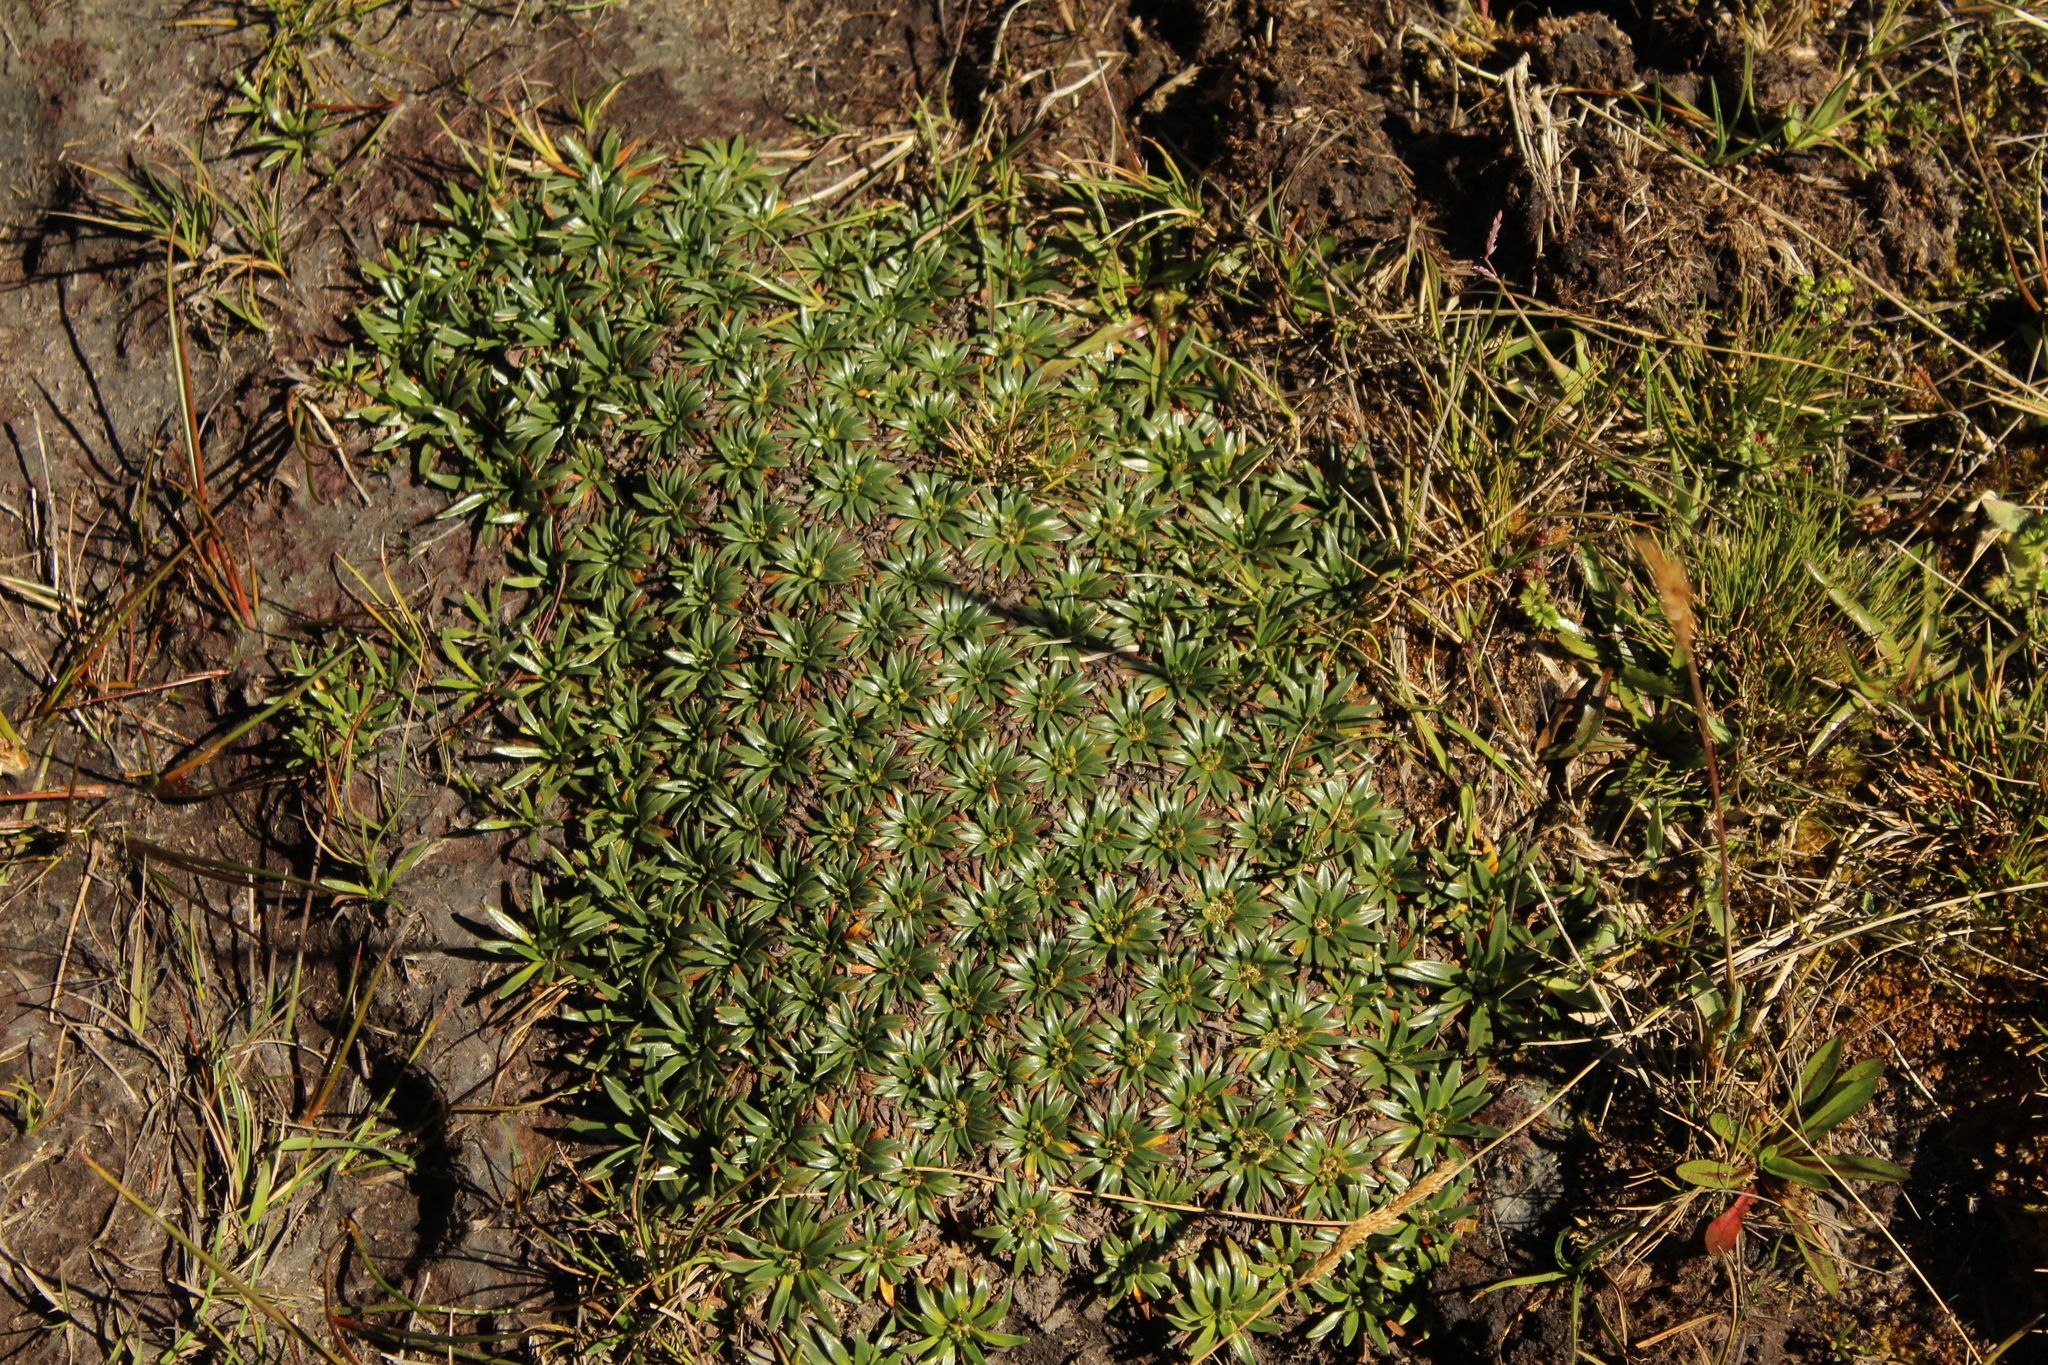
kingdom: Plantae
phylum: Tracheophyta
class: Magnoliopsida
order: Lamiales
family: Plantaginaceae
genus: Plantago
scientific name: Plantago rigida
